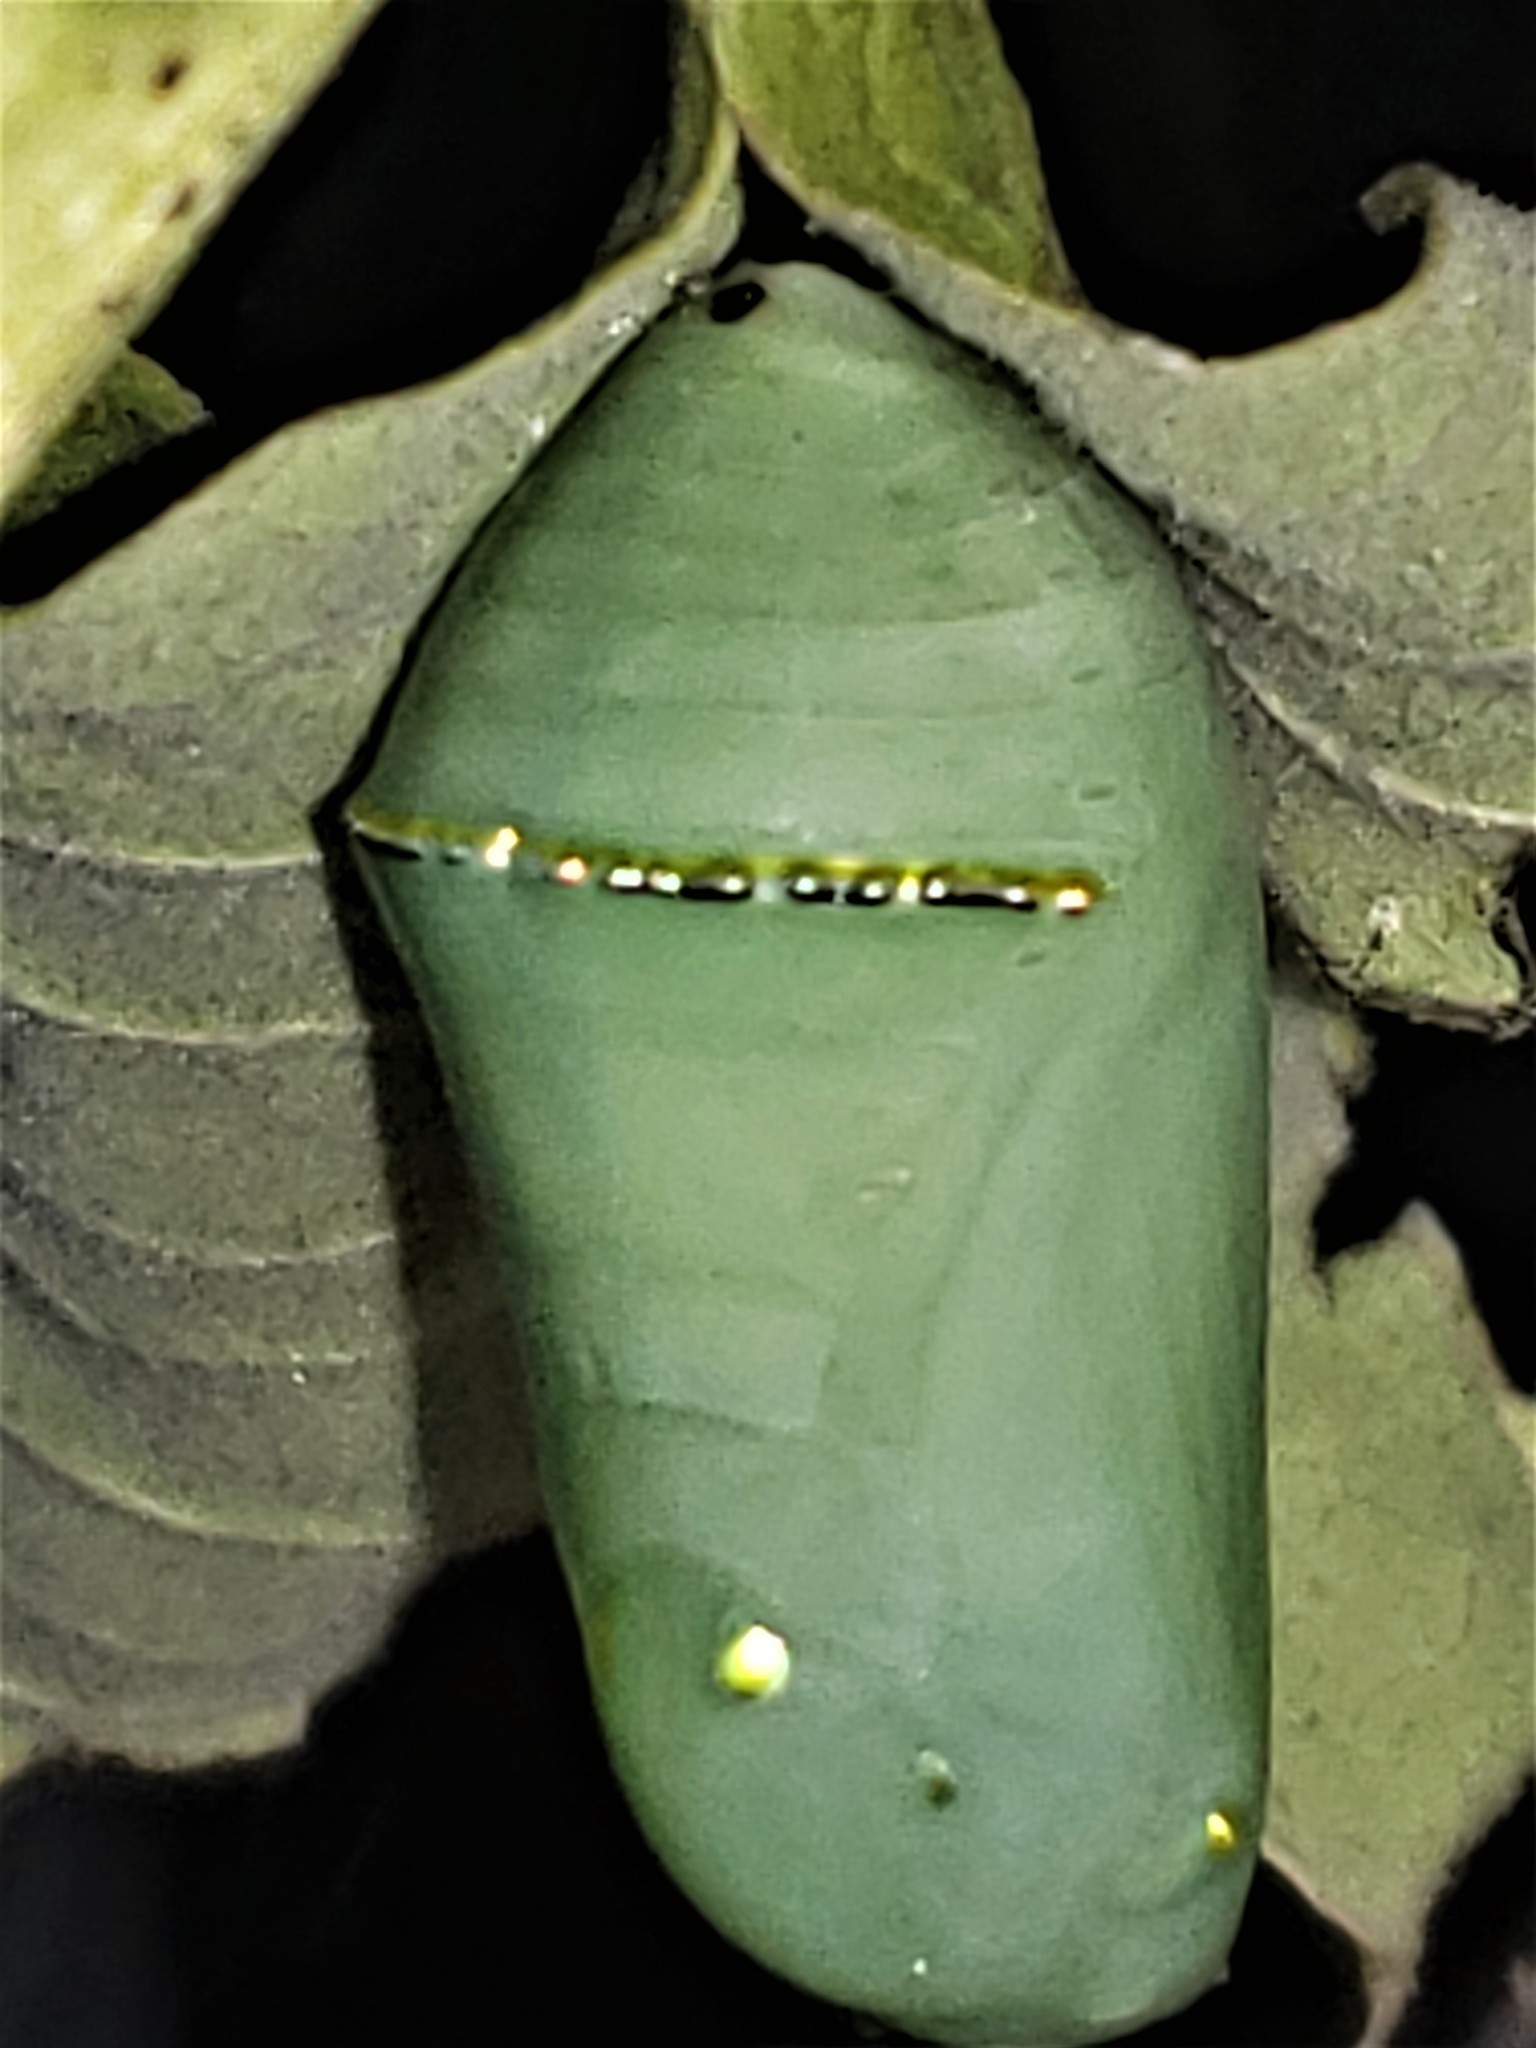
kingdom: Animalia
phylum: Arthropoda
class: Insecta
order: Lepidoptera
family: Nymphalidae
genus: Danaus
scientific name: Danaus plexippus
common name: Monarch
